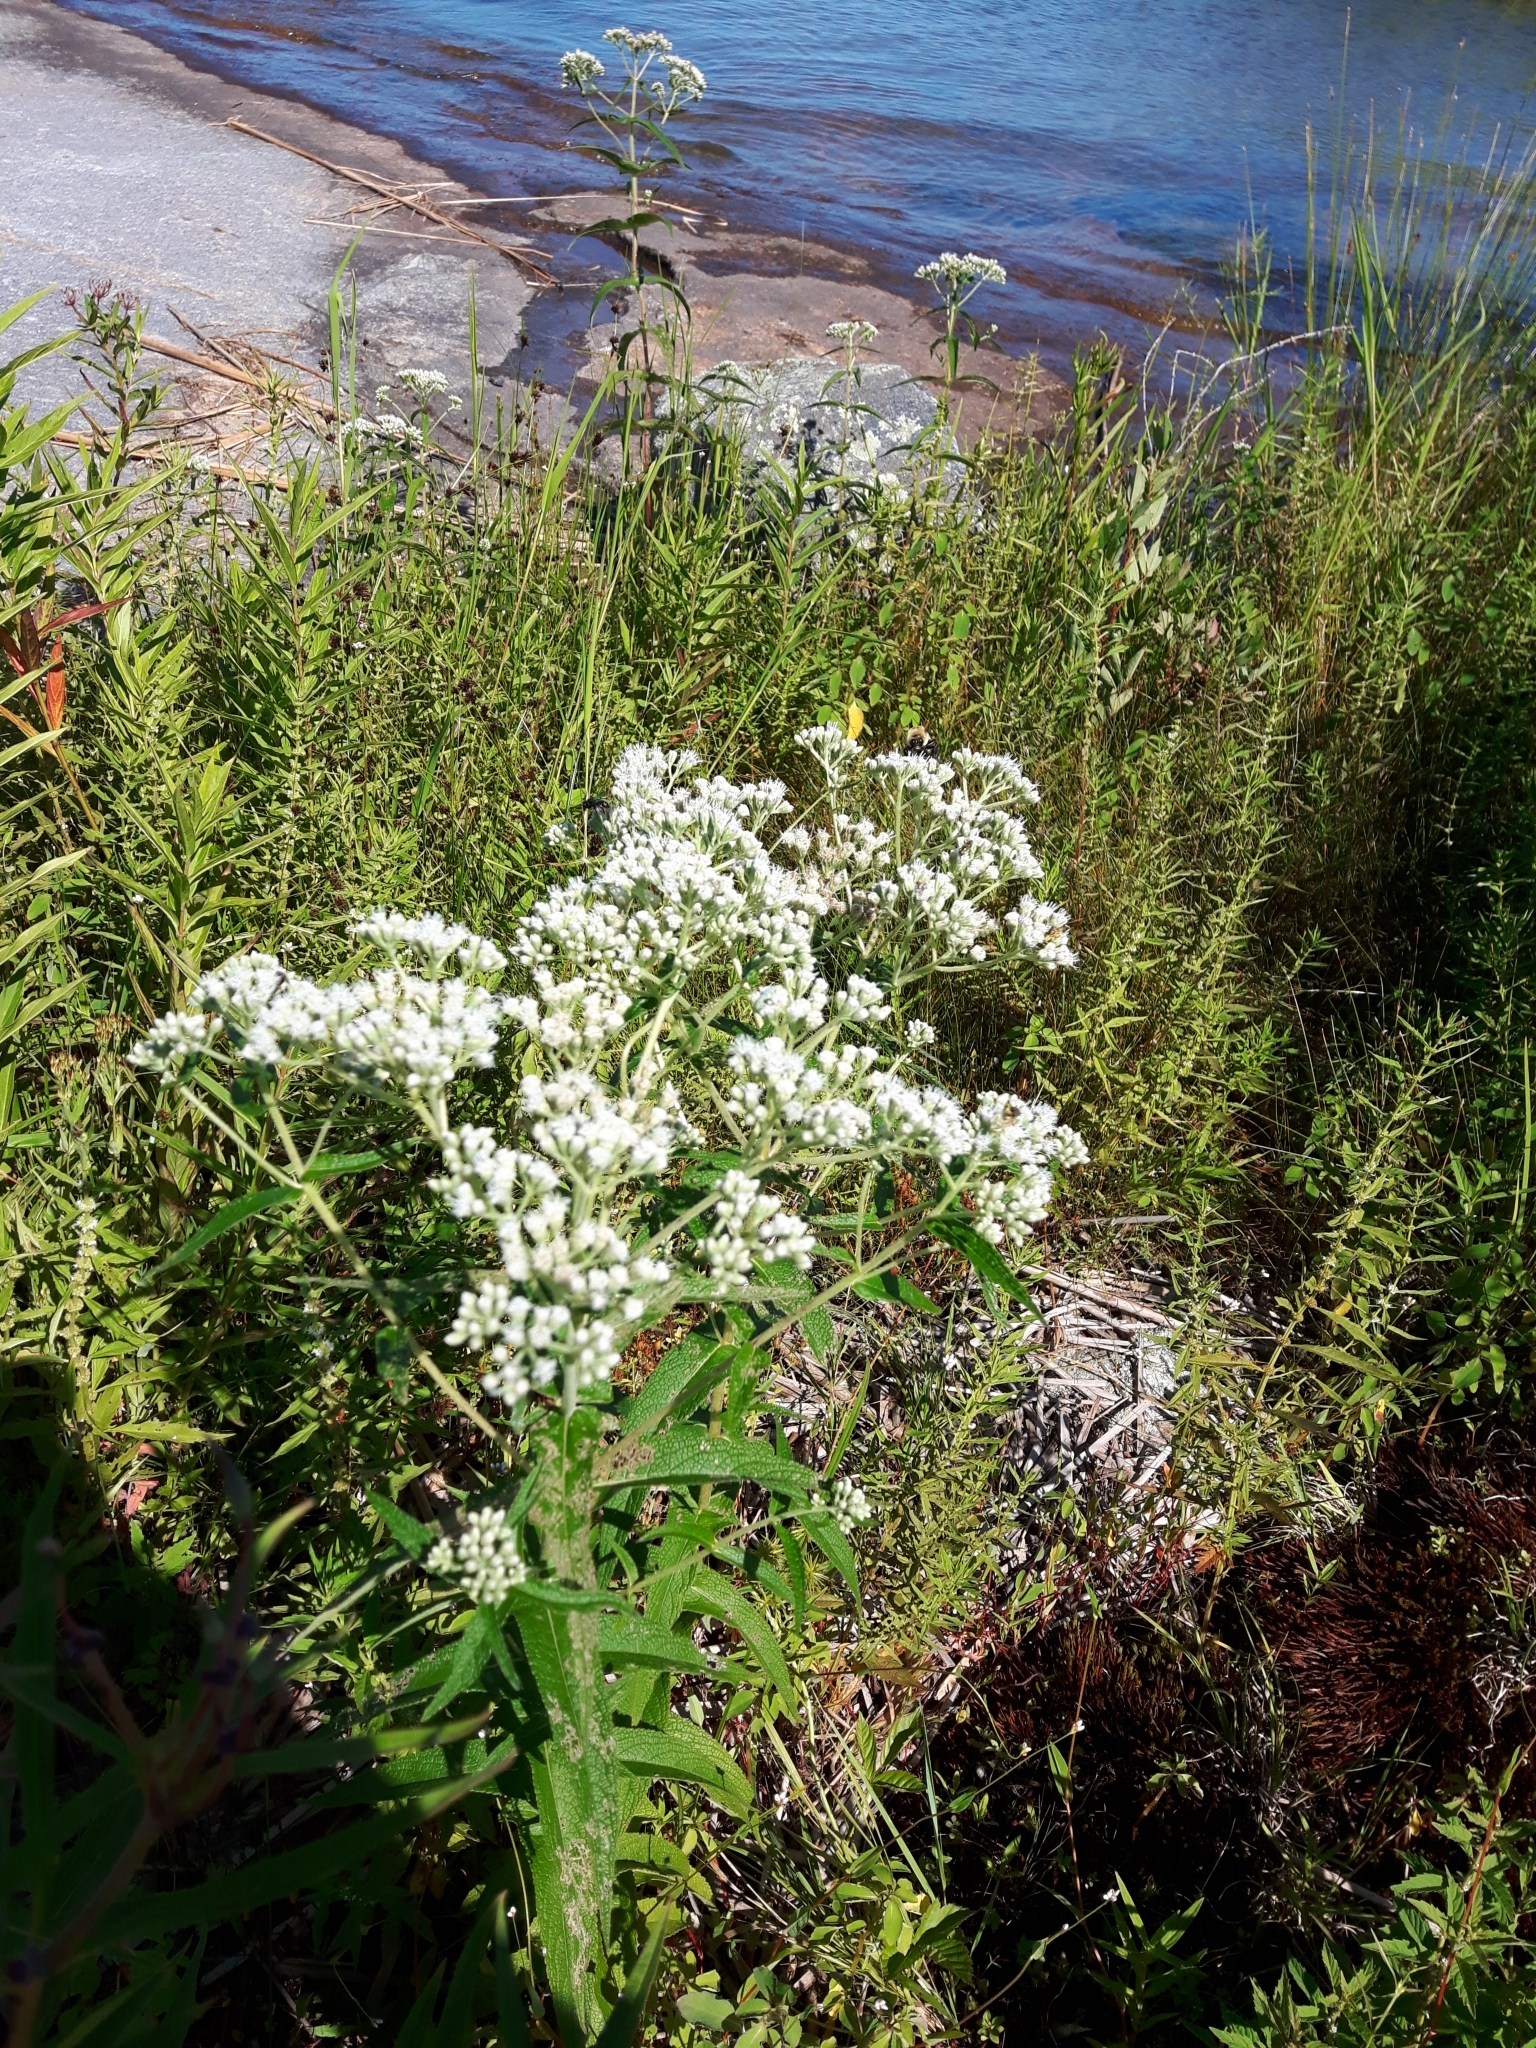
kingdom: Plantae
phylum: Tracheophyta
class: Magnoliopsida
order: Asterales
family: Asteraceae
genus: Eupatorium
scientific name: Eupatorium perfoliatum
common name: Boneset
